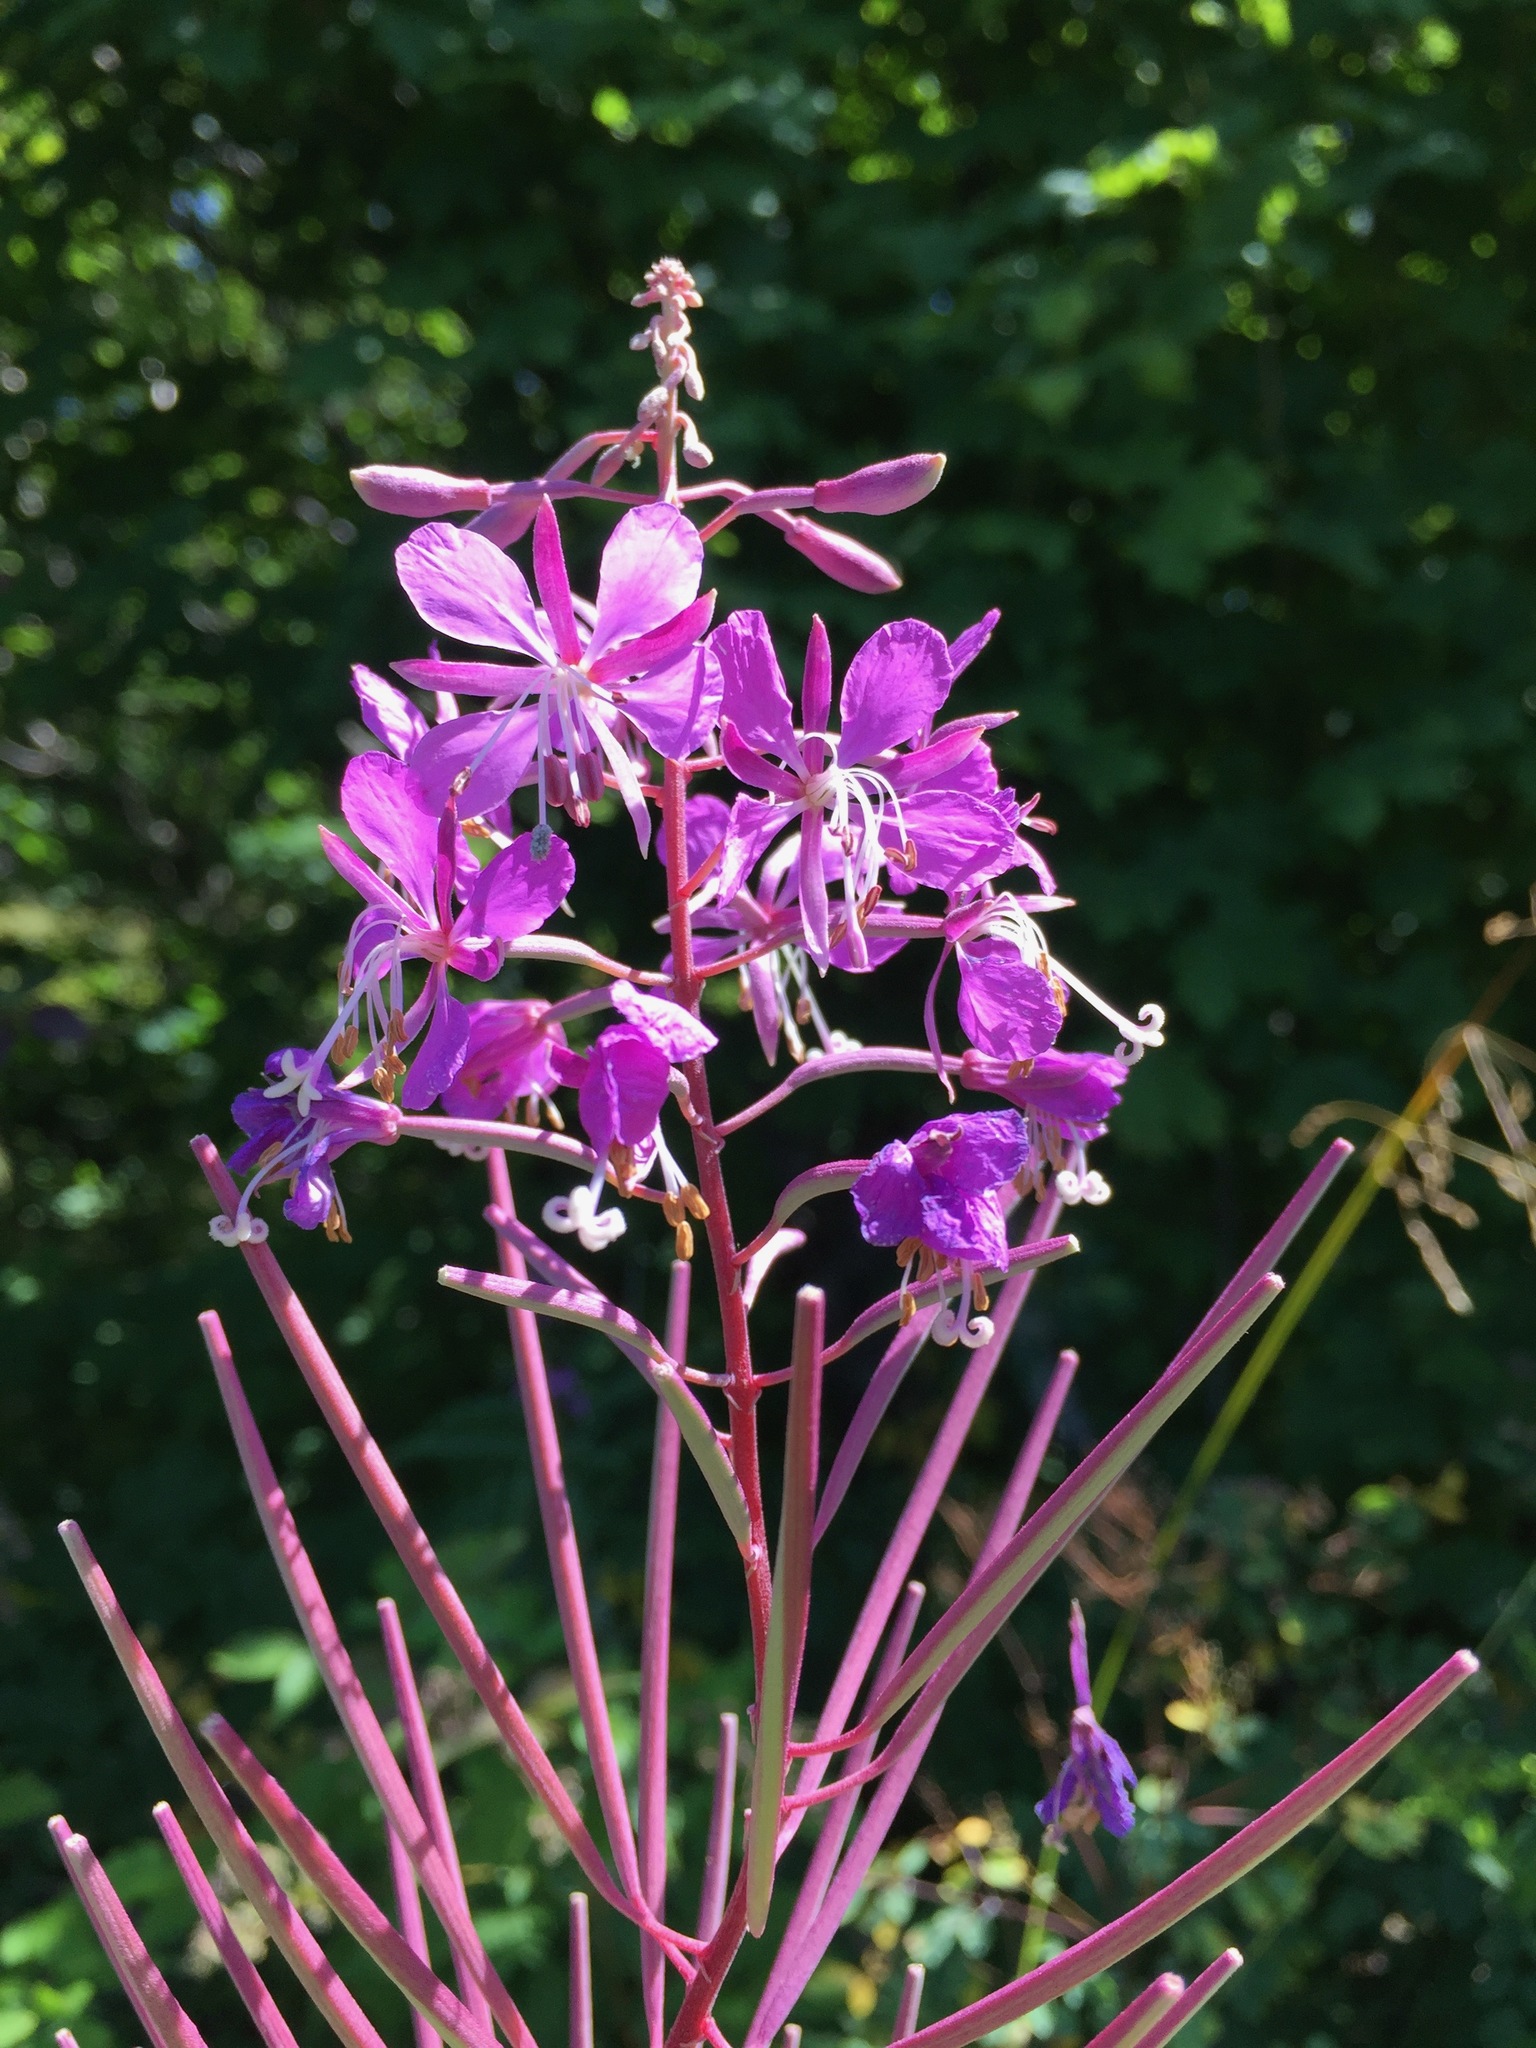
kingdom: Plantae
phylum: Tracheophyta
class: Magnoliopsida
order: Myrtales
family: Onagraceae
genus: Chamaenerion
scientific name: Chamaenerion angustifolium
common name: Fireweed
